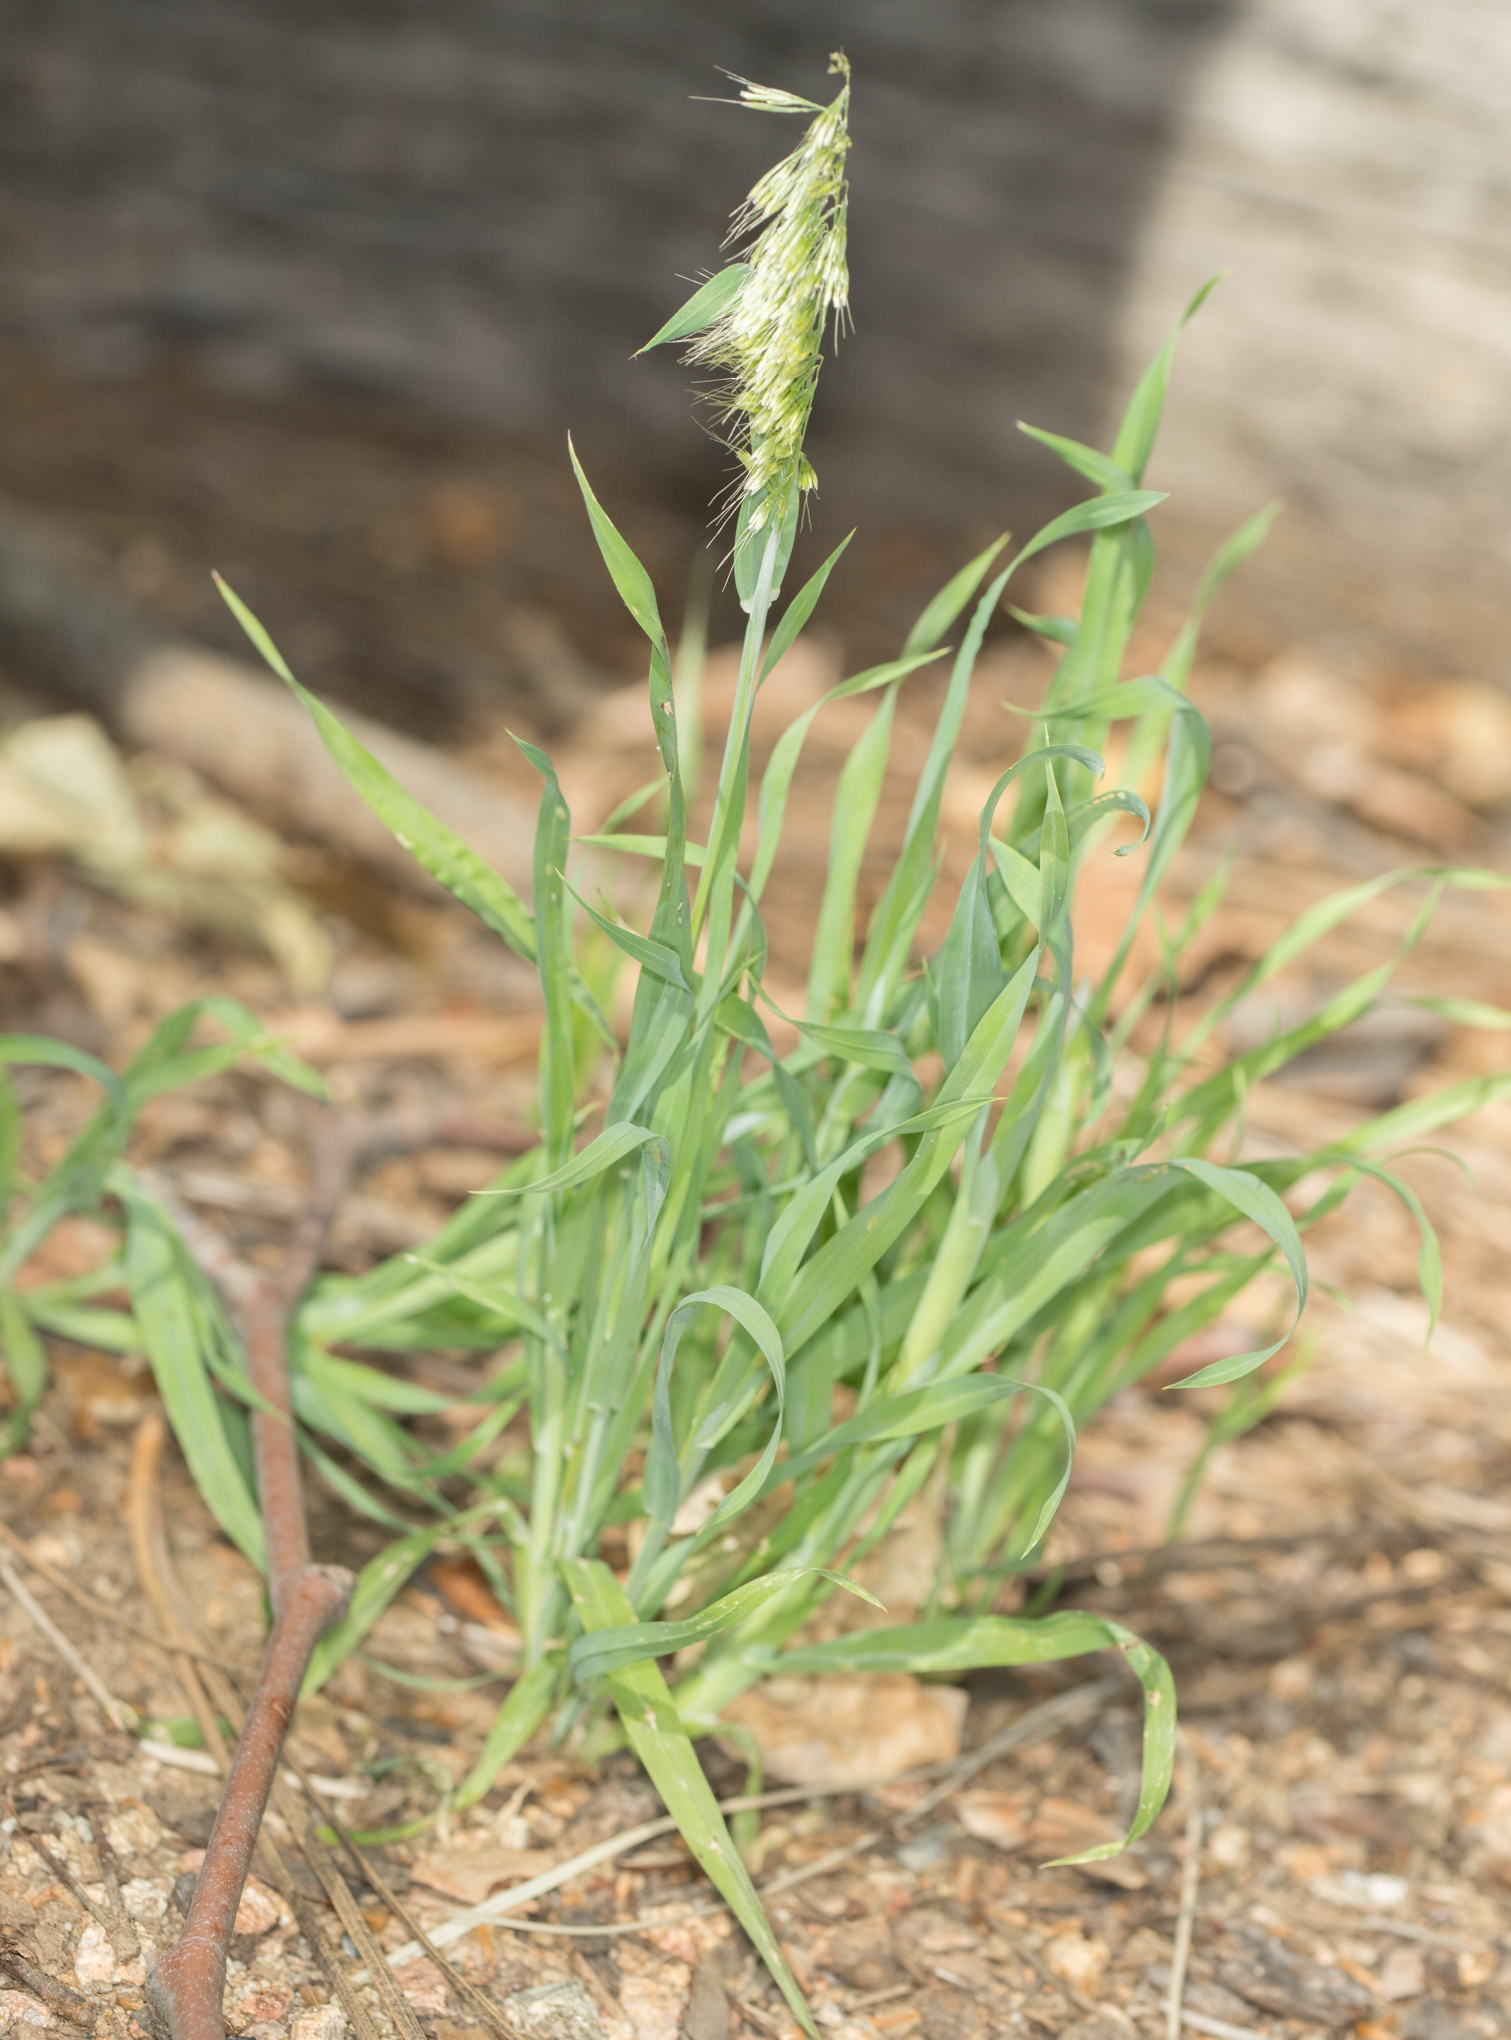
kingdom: Plantae
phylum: Tracheophyta
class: Liliopsida
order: Poales
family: Poaceae
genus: Lamarckia
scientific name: Lamarckia aurea
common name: Golden dog's-tail
